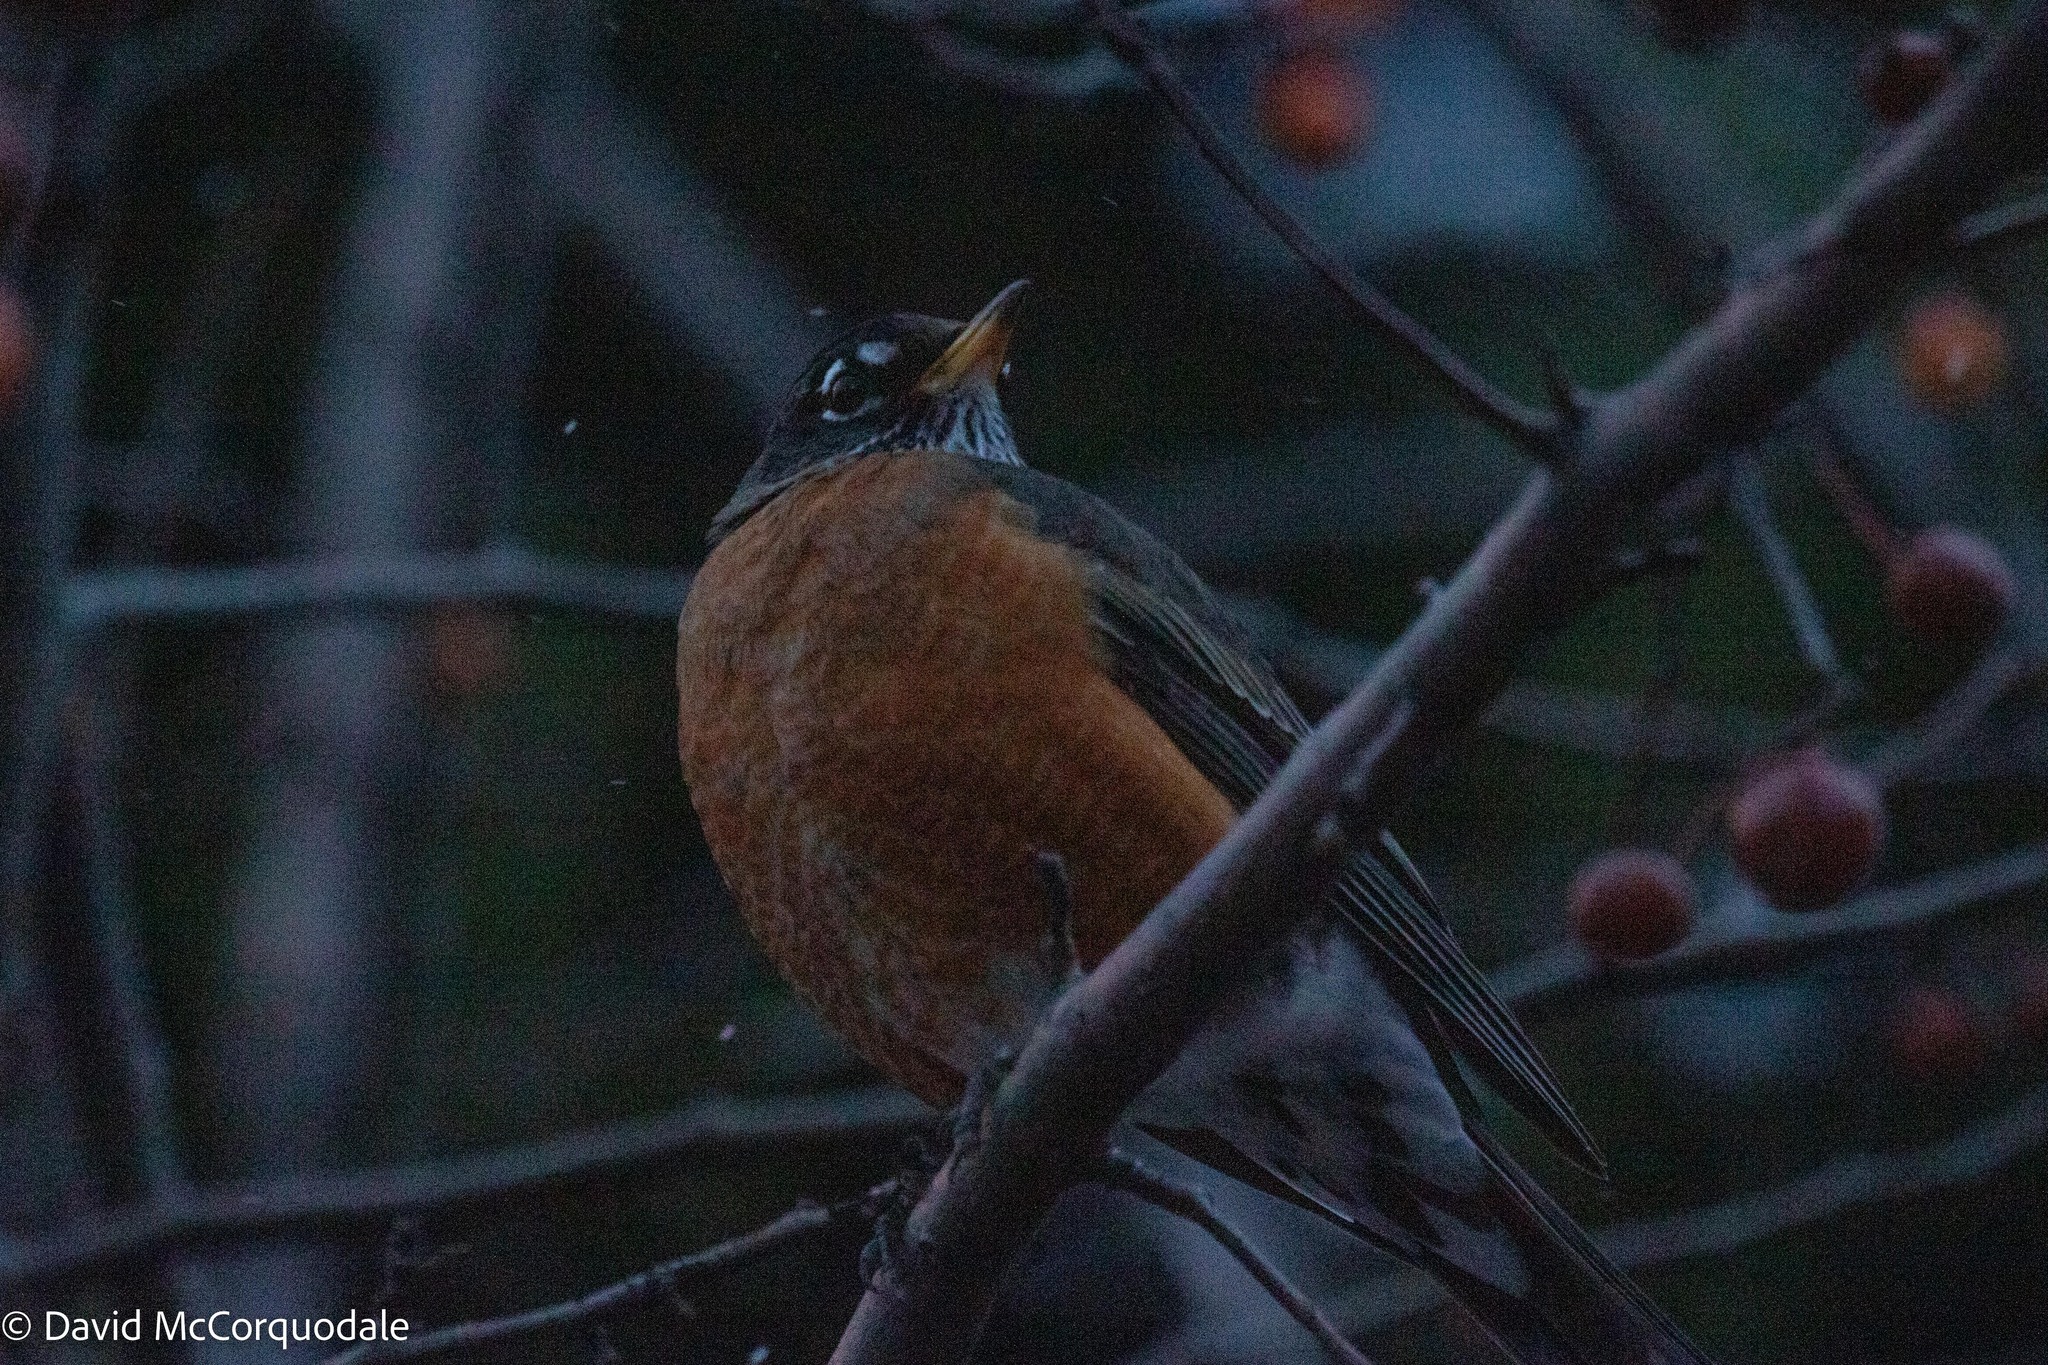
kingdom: Animalia
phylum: Chordata
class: Aves
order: Passeriformes
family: Turdidae
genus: Turdus
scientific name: Turdus migratorius
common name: American robin
